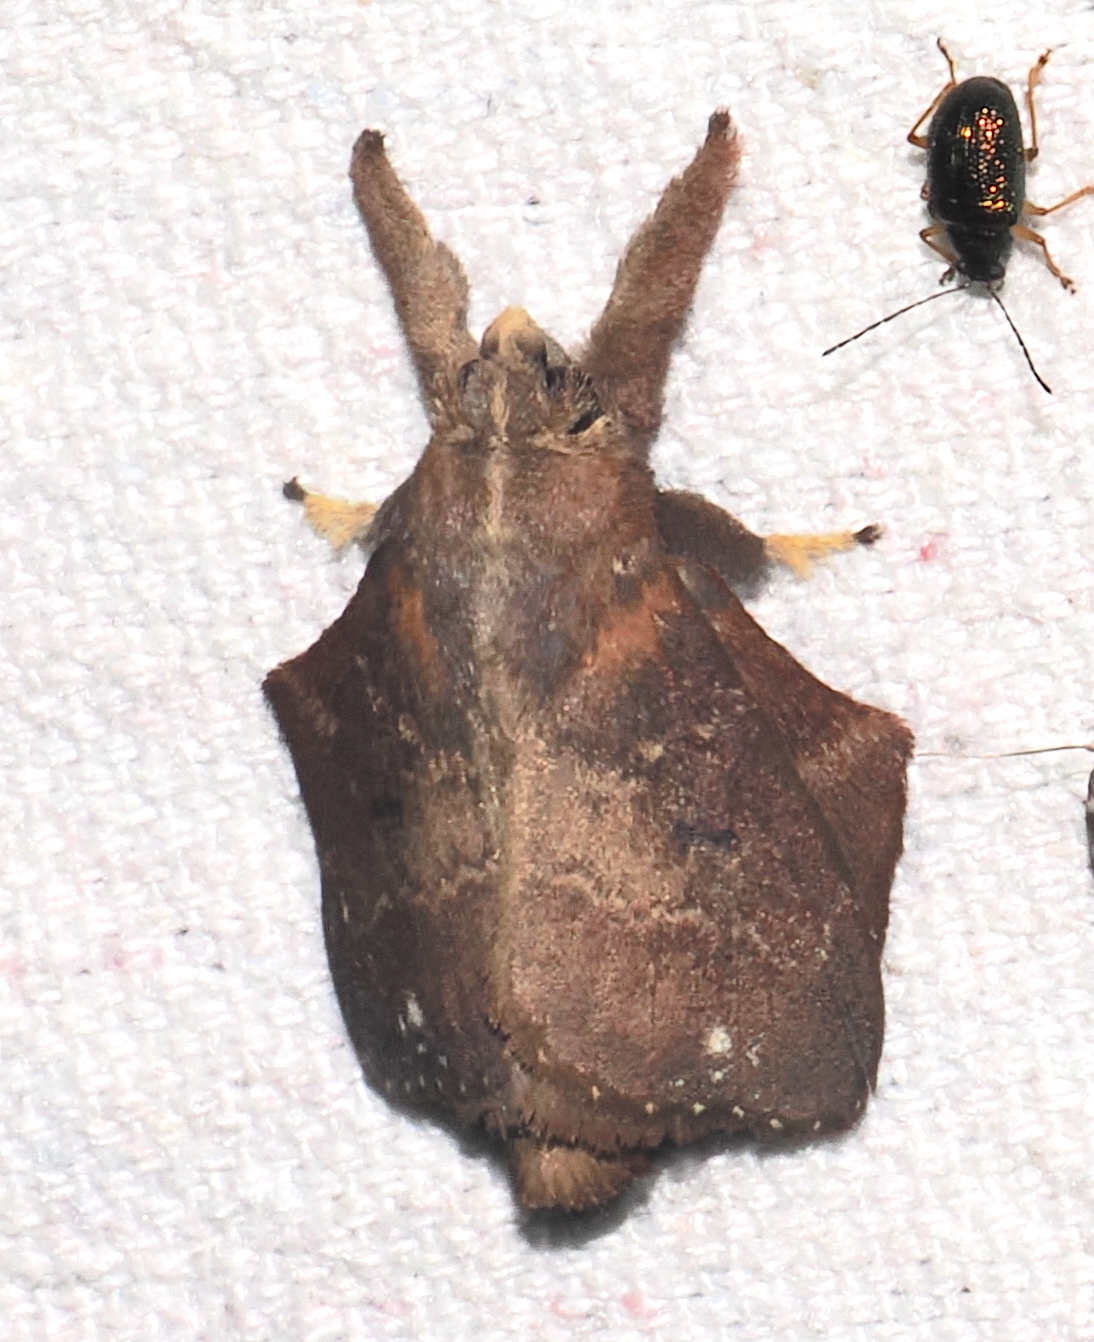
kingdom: Animalia
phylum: Arthropoda
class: Insecta
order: Lepidoptera
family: Lasiocampidae
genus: Euglyphis
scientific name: Euglyphis definita
